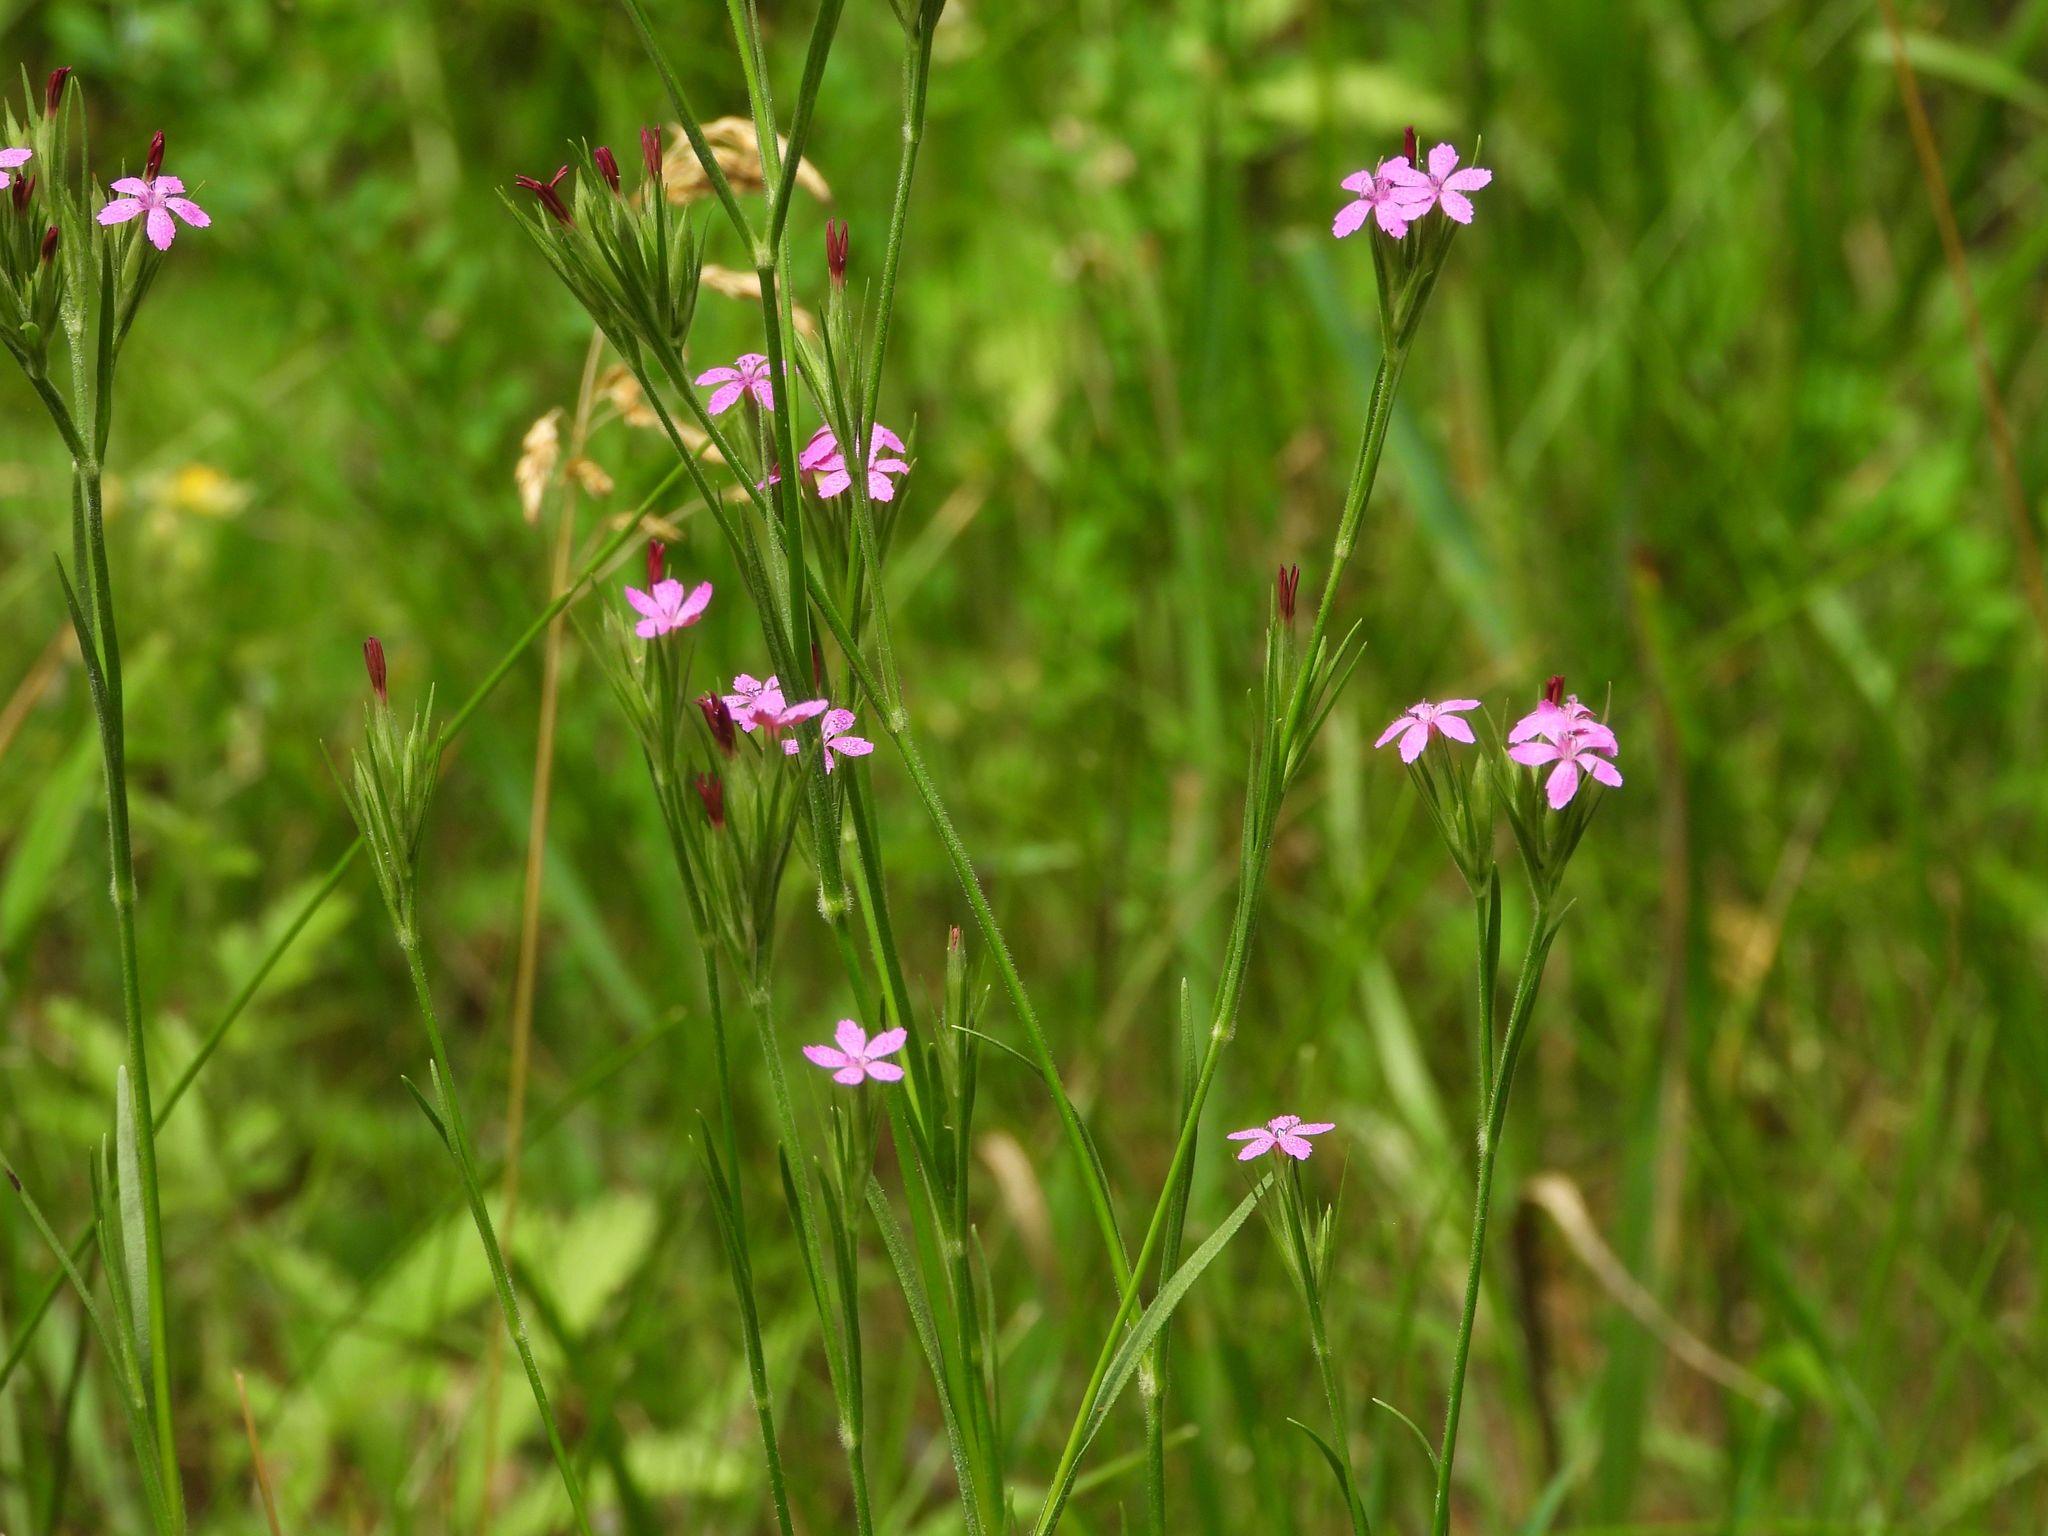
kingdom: Plantae
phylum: Tracheophyta
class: Magnoliopsida
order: Caryophyllales
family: Caryophyllaceae
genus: Dianthus
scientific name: Dianthus armeria
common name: Deptford pink
